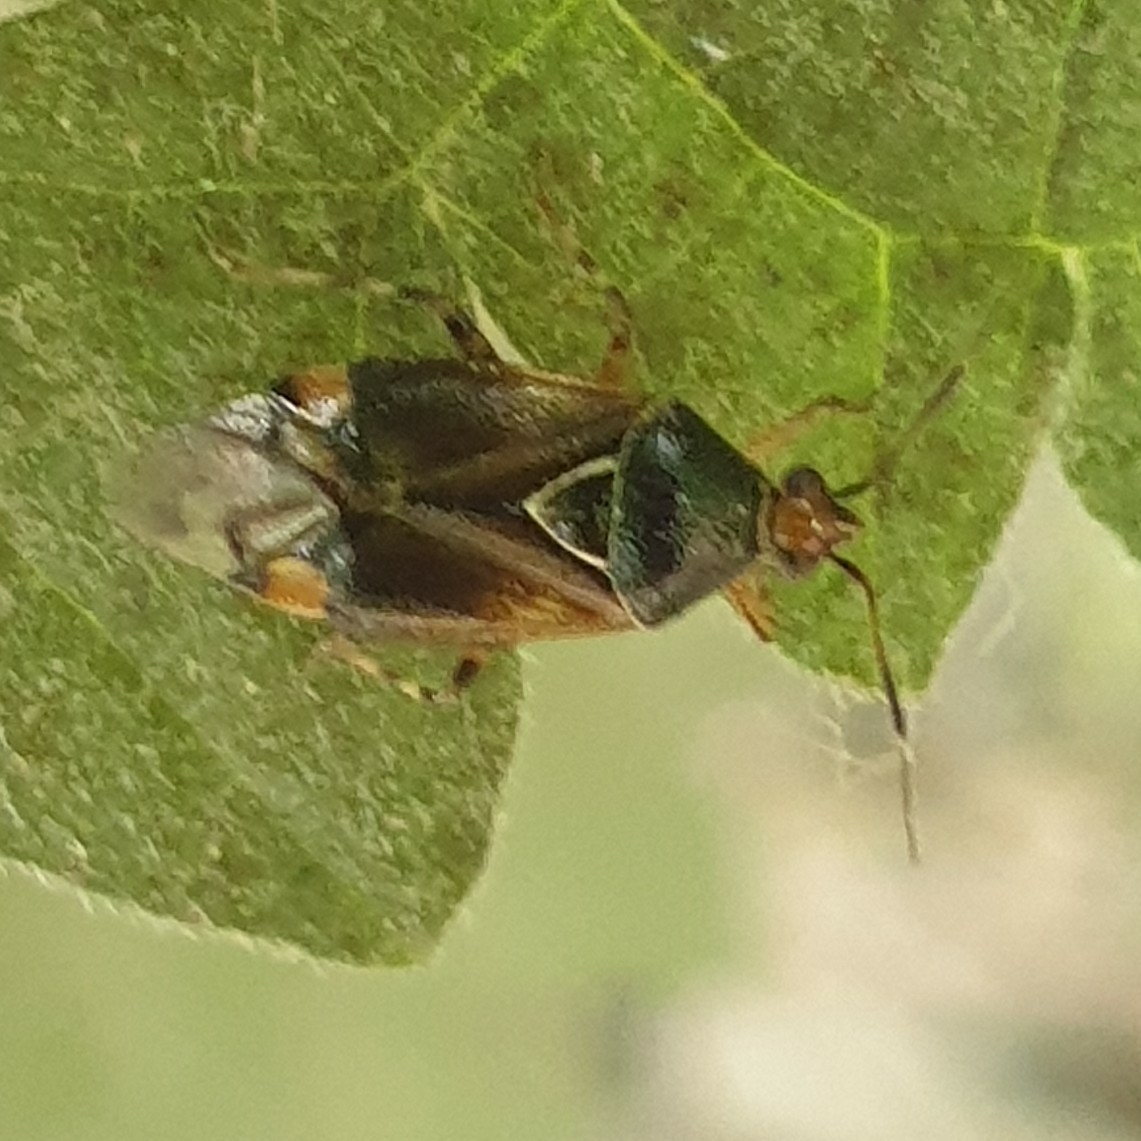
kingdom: Animalia
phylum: Arthropoda
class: Insecta
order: Hemiptera
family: Miridae
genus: Deraeocoris
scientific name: Deraeocoris flavilinea
